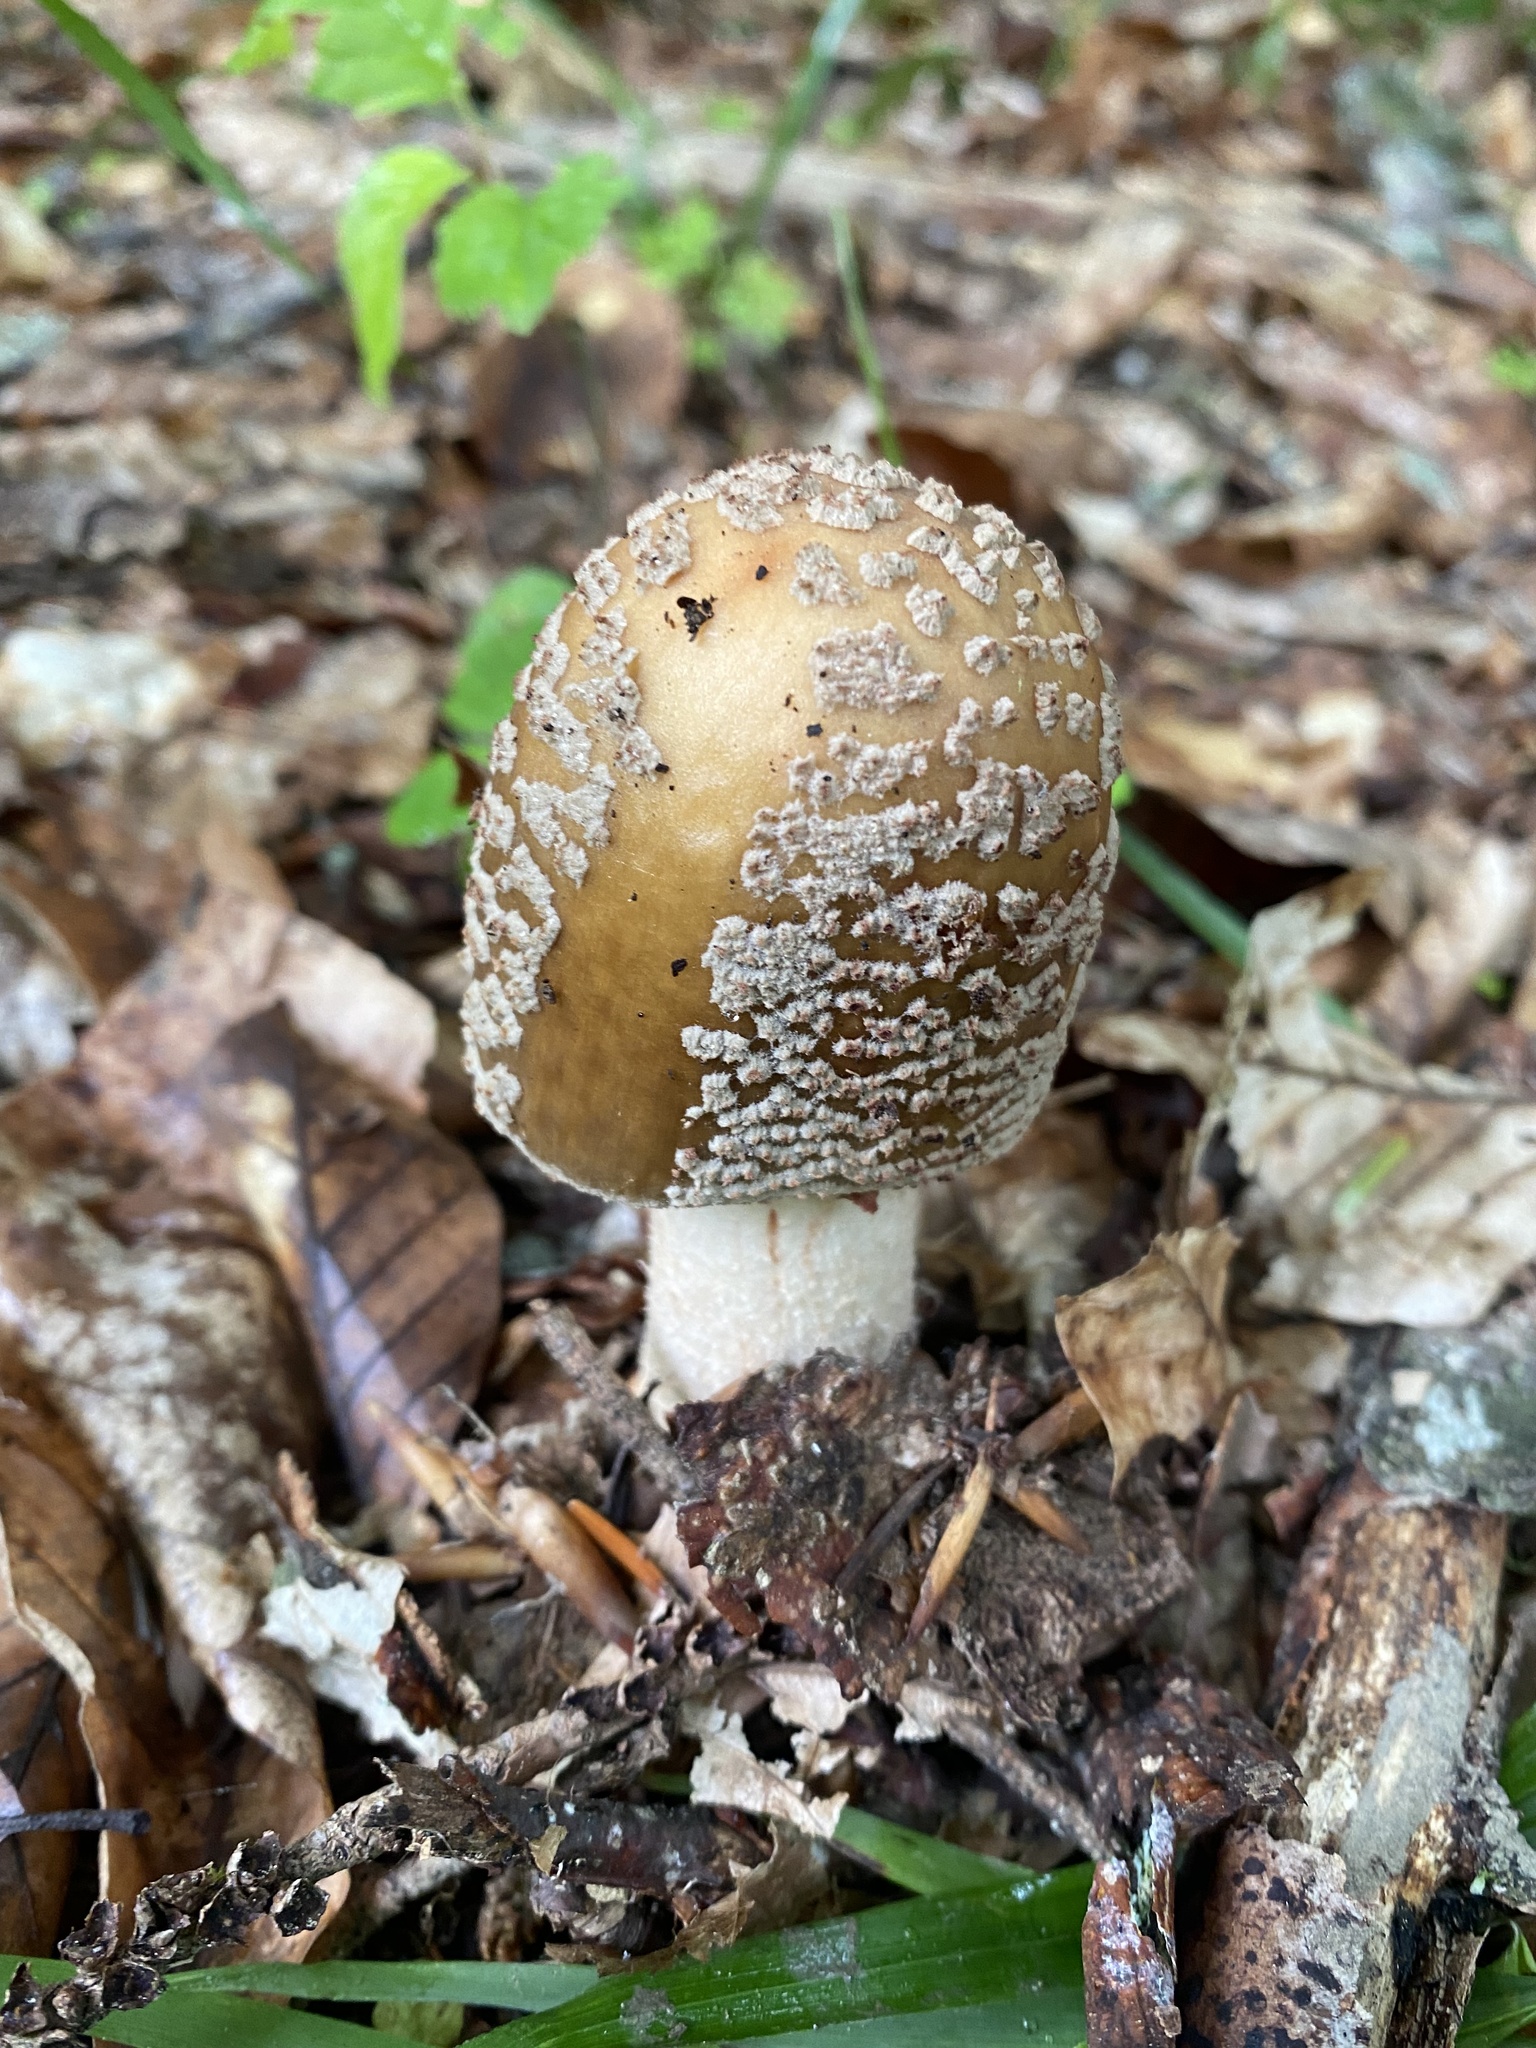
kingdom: Fungi
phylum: Basidiomycota
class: Agaricomycetes
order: Agaricales
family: Amanitaceae
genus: Amanita
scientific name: Amanita rubescens
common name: Blusher
